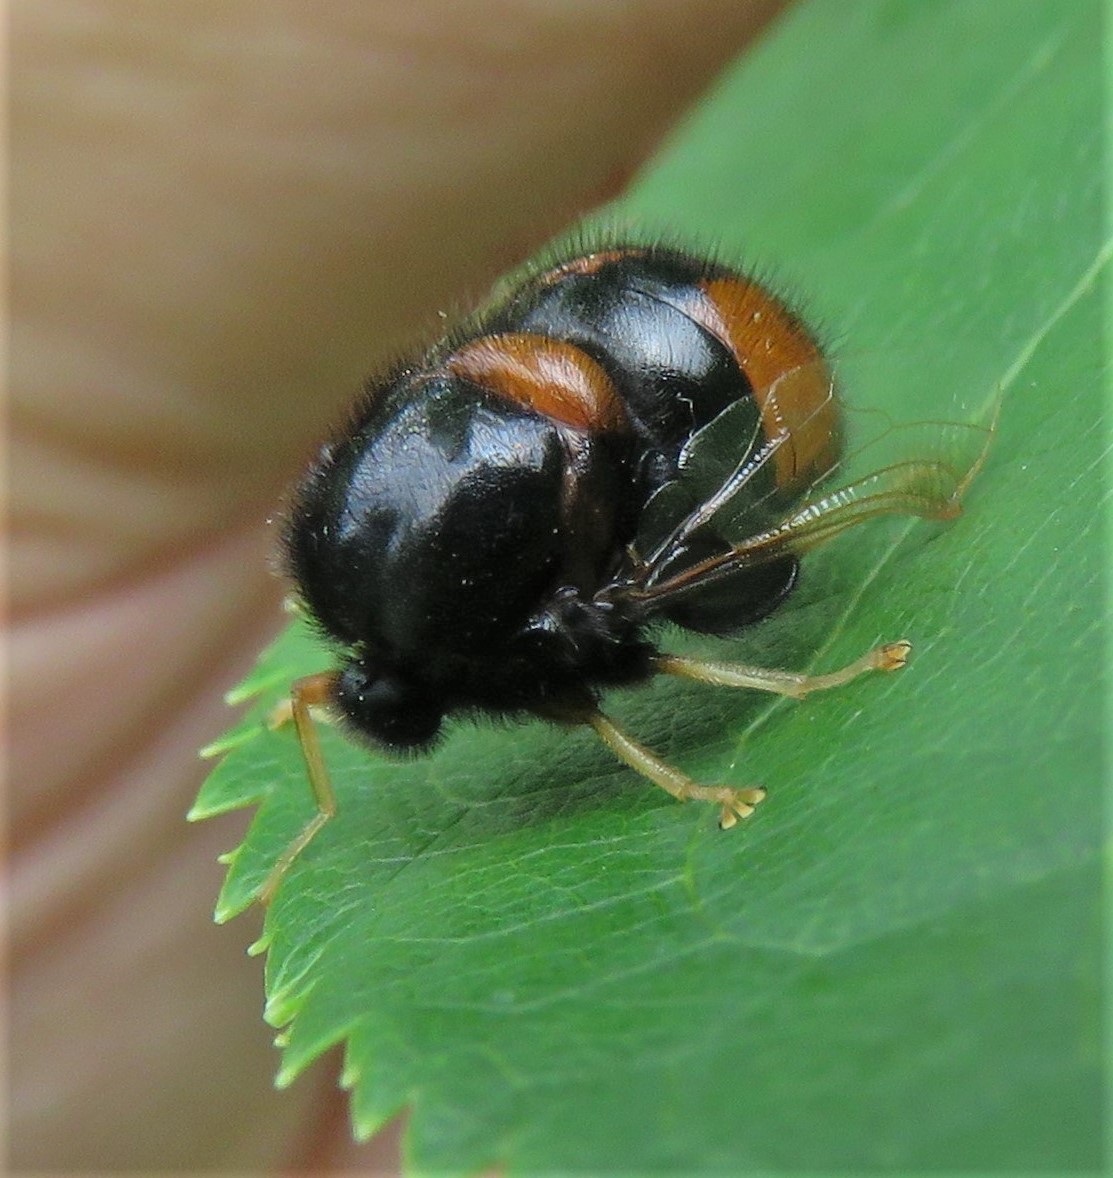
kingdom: Animalia
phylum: Arthropoda
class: Insecta
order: Diptera
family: Acroceridae
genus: Pterodontia
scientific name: Pterodontia flavipes
